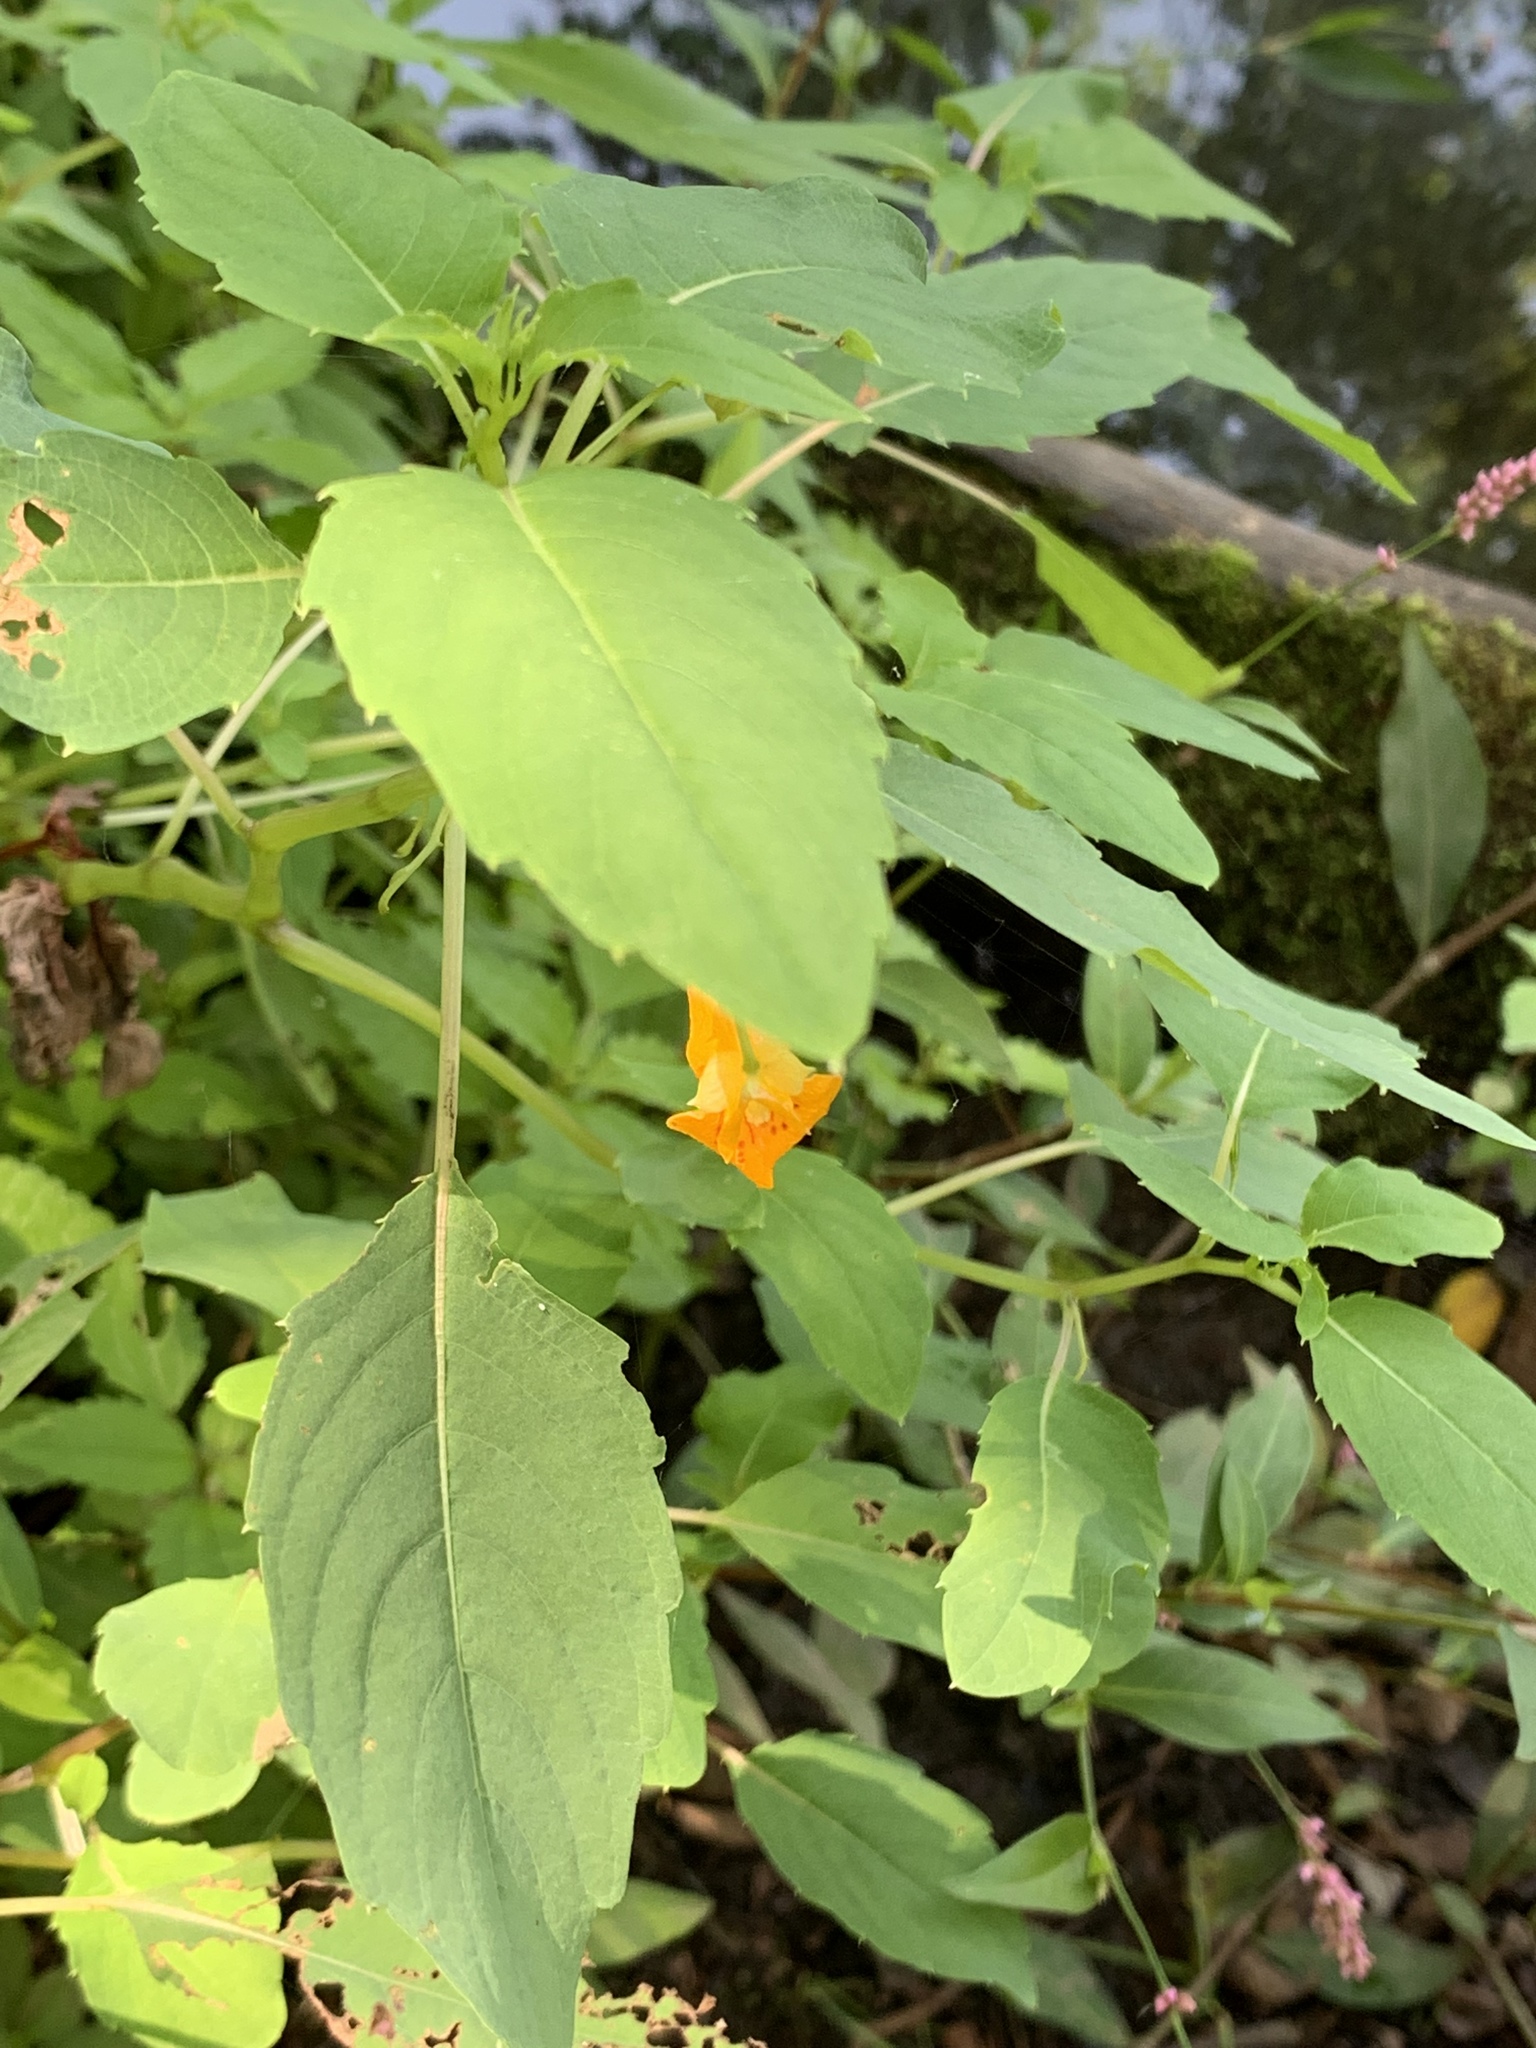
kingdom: Plantae
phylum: Tracheophyta
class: Magnoliopsida
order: Ericales
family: Balsaminaceae
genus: Impatiens
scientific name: Impatiens capensis
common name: Orange balsam
